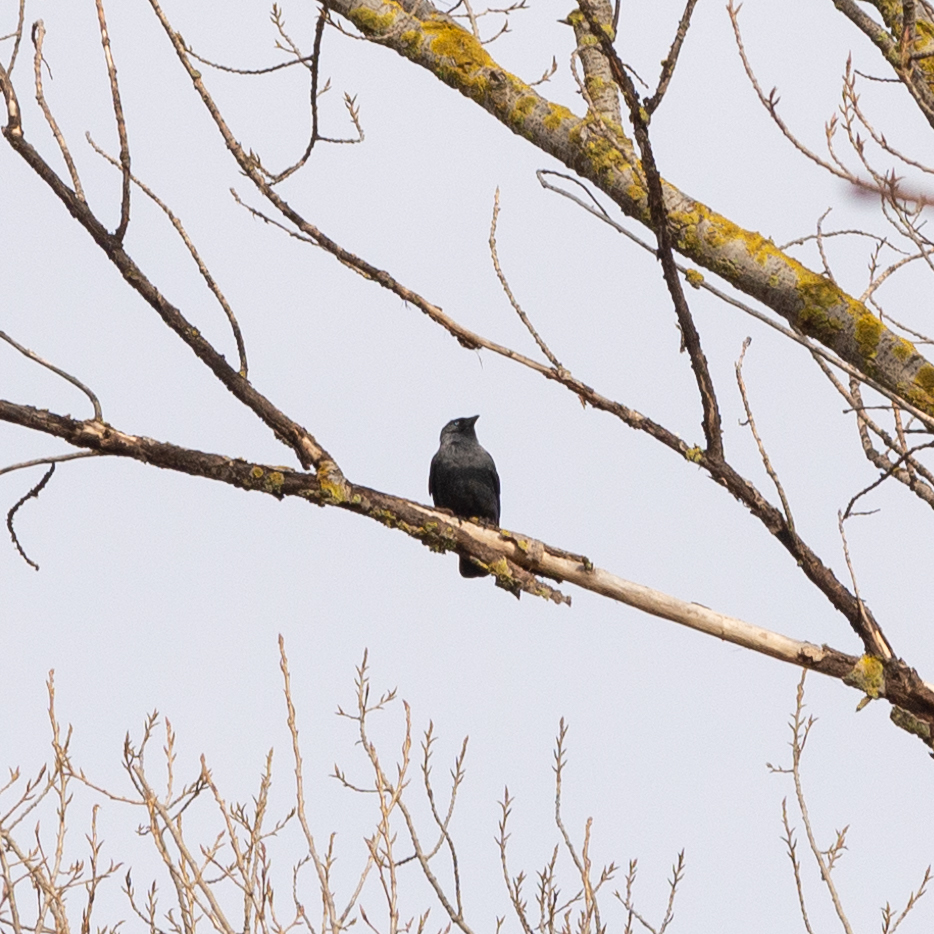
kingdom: Animalia
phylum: Chordata
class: Aves
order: Passeriformes
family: Corvidae
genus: Coloeus
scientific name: Coloeus monedula
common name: Western jackdaw
